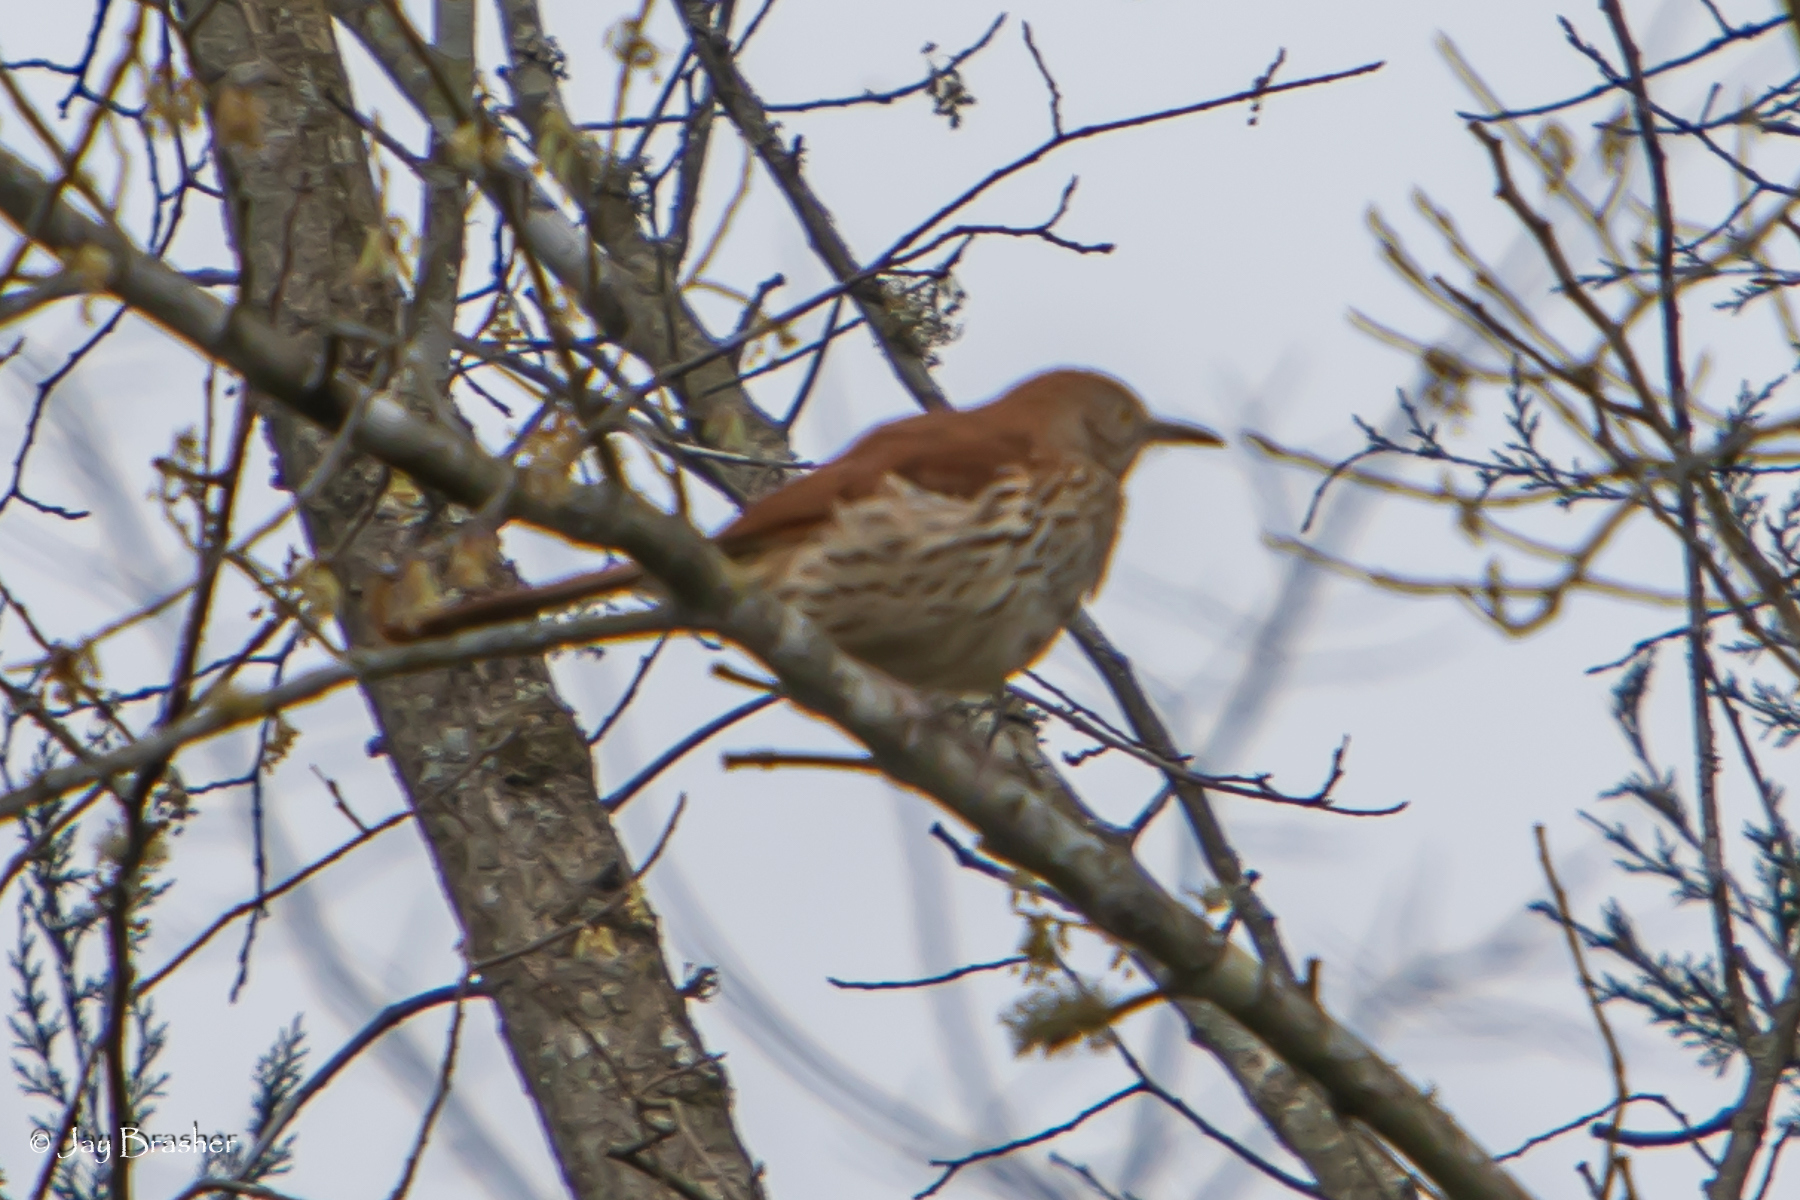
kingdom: Animalia
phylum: Chordata
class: Aves
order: Passeriformes
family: Mimidae
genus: Toxostoma
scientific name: Toxostoma rufum
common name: Brown thrasher
